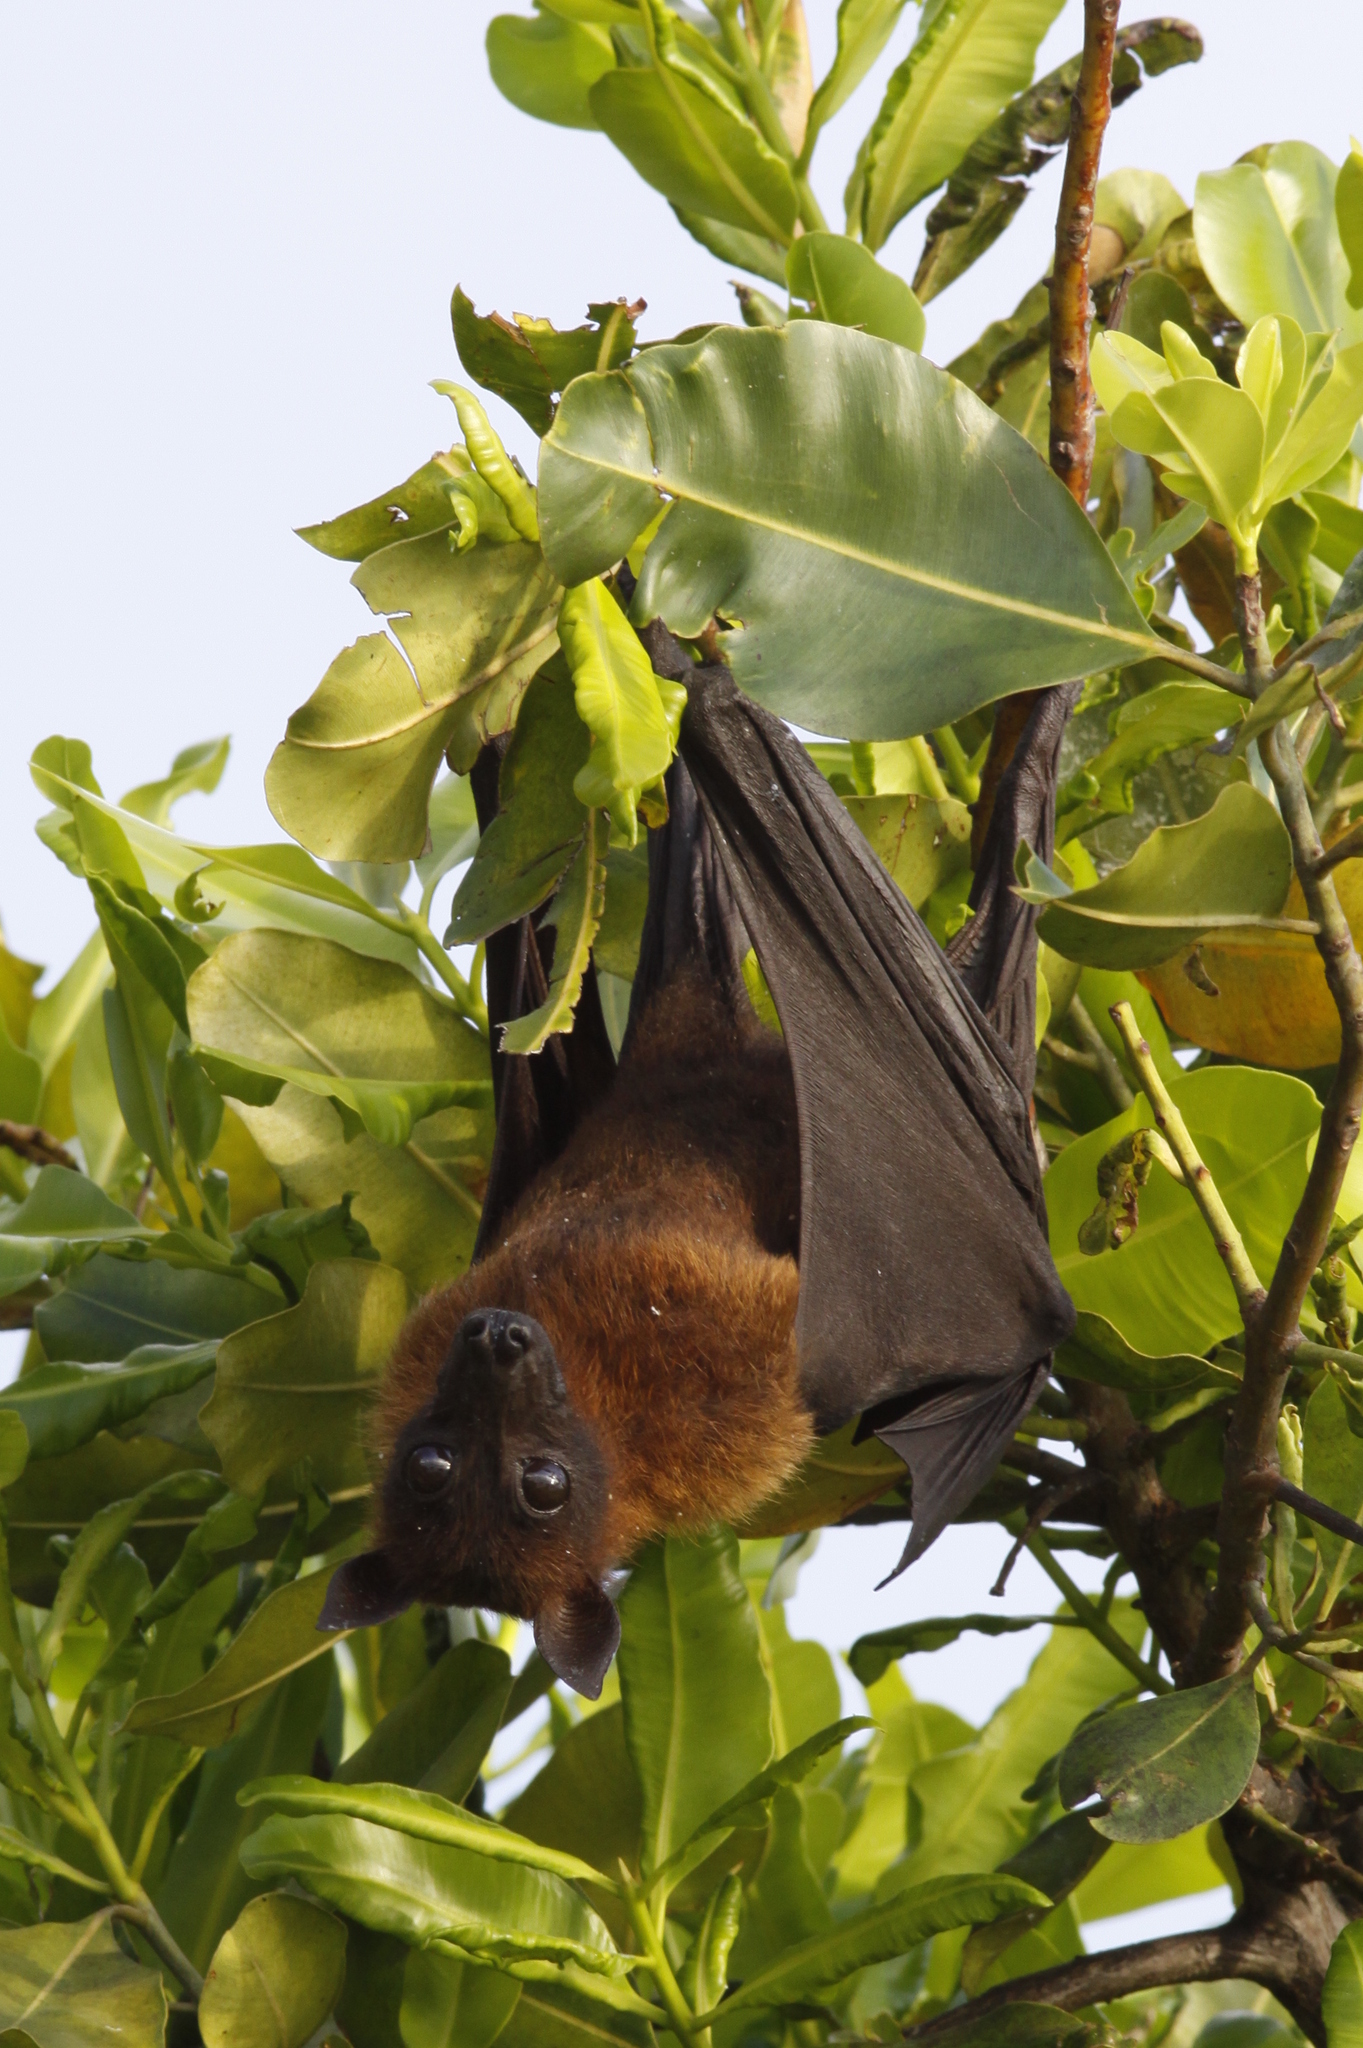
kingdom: Animalia
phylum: Chordata
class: Mammalia
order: Chiroptera
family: Pteropodidae
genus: Pteropus
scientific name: Pteropus vampyrus
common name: Large flying fox
